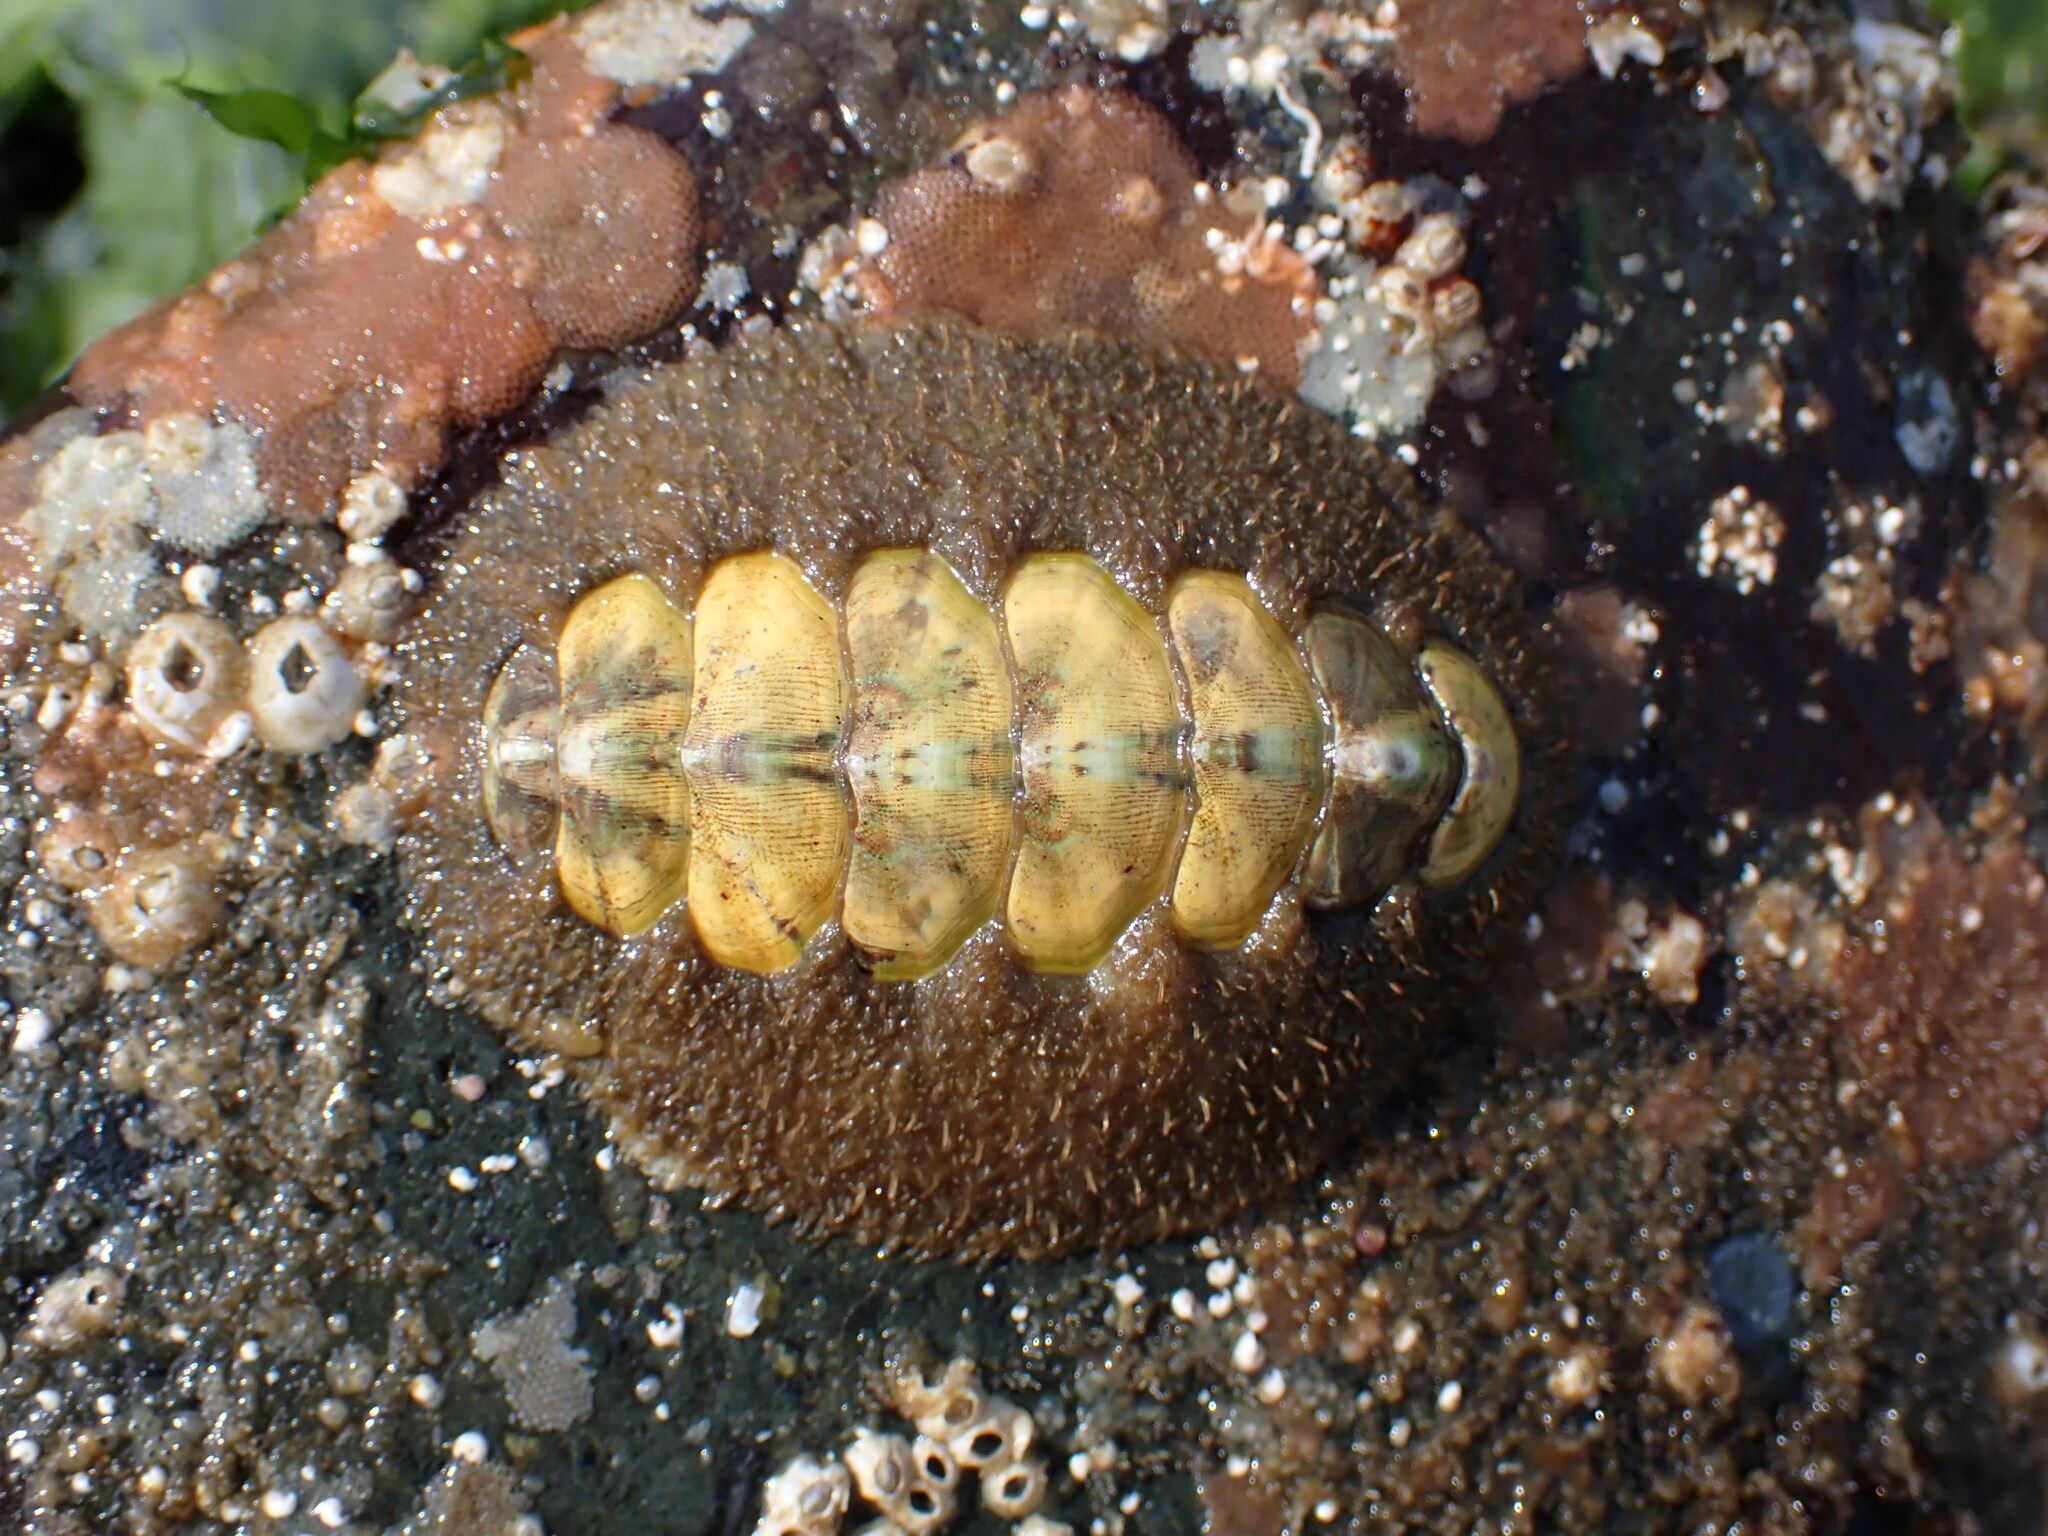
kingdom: Animalia
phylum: Mollusca
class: Polyplacophora
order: Chitonida
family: Mopaliidae
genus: Mopalia
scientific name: Mopalia ciliata
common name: Hairy chiton
